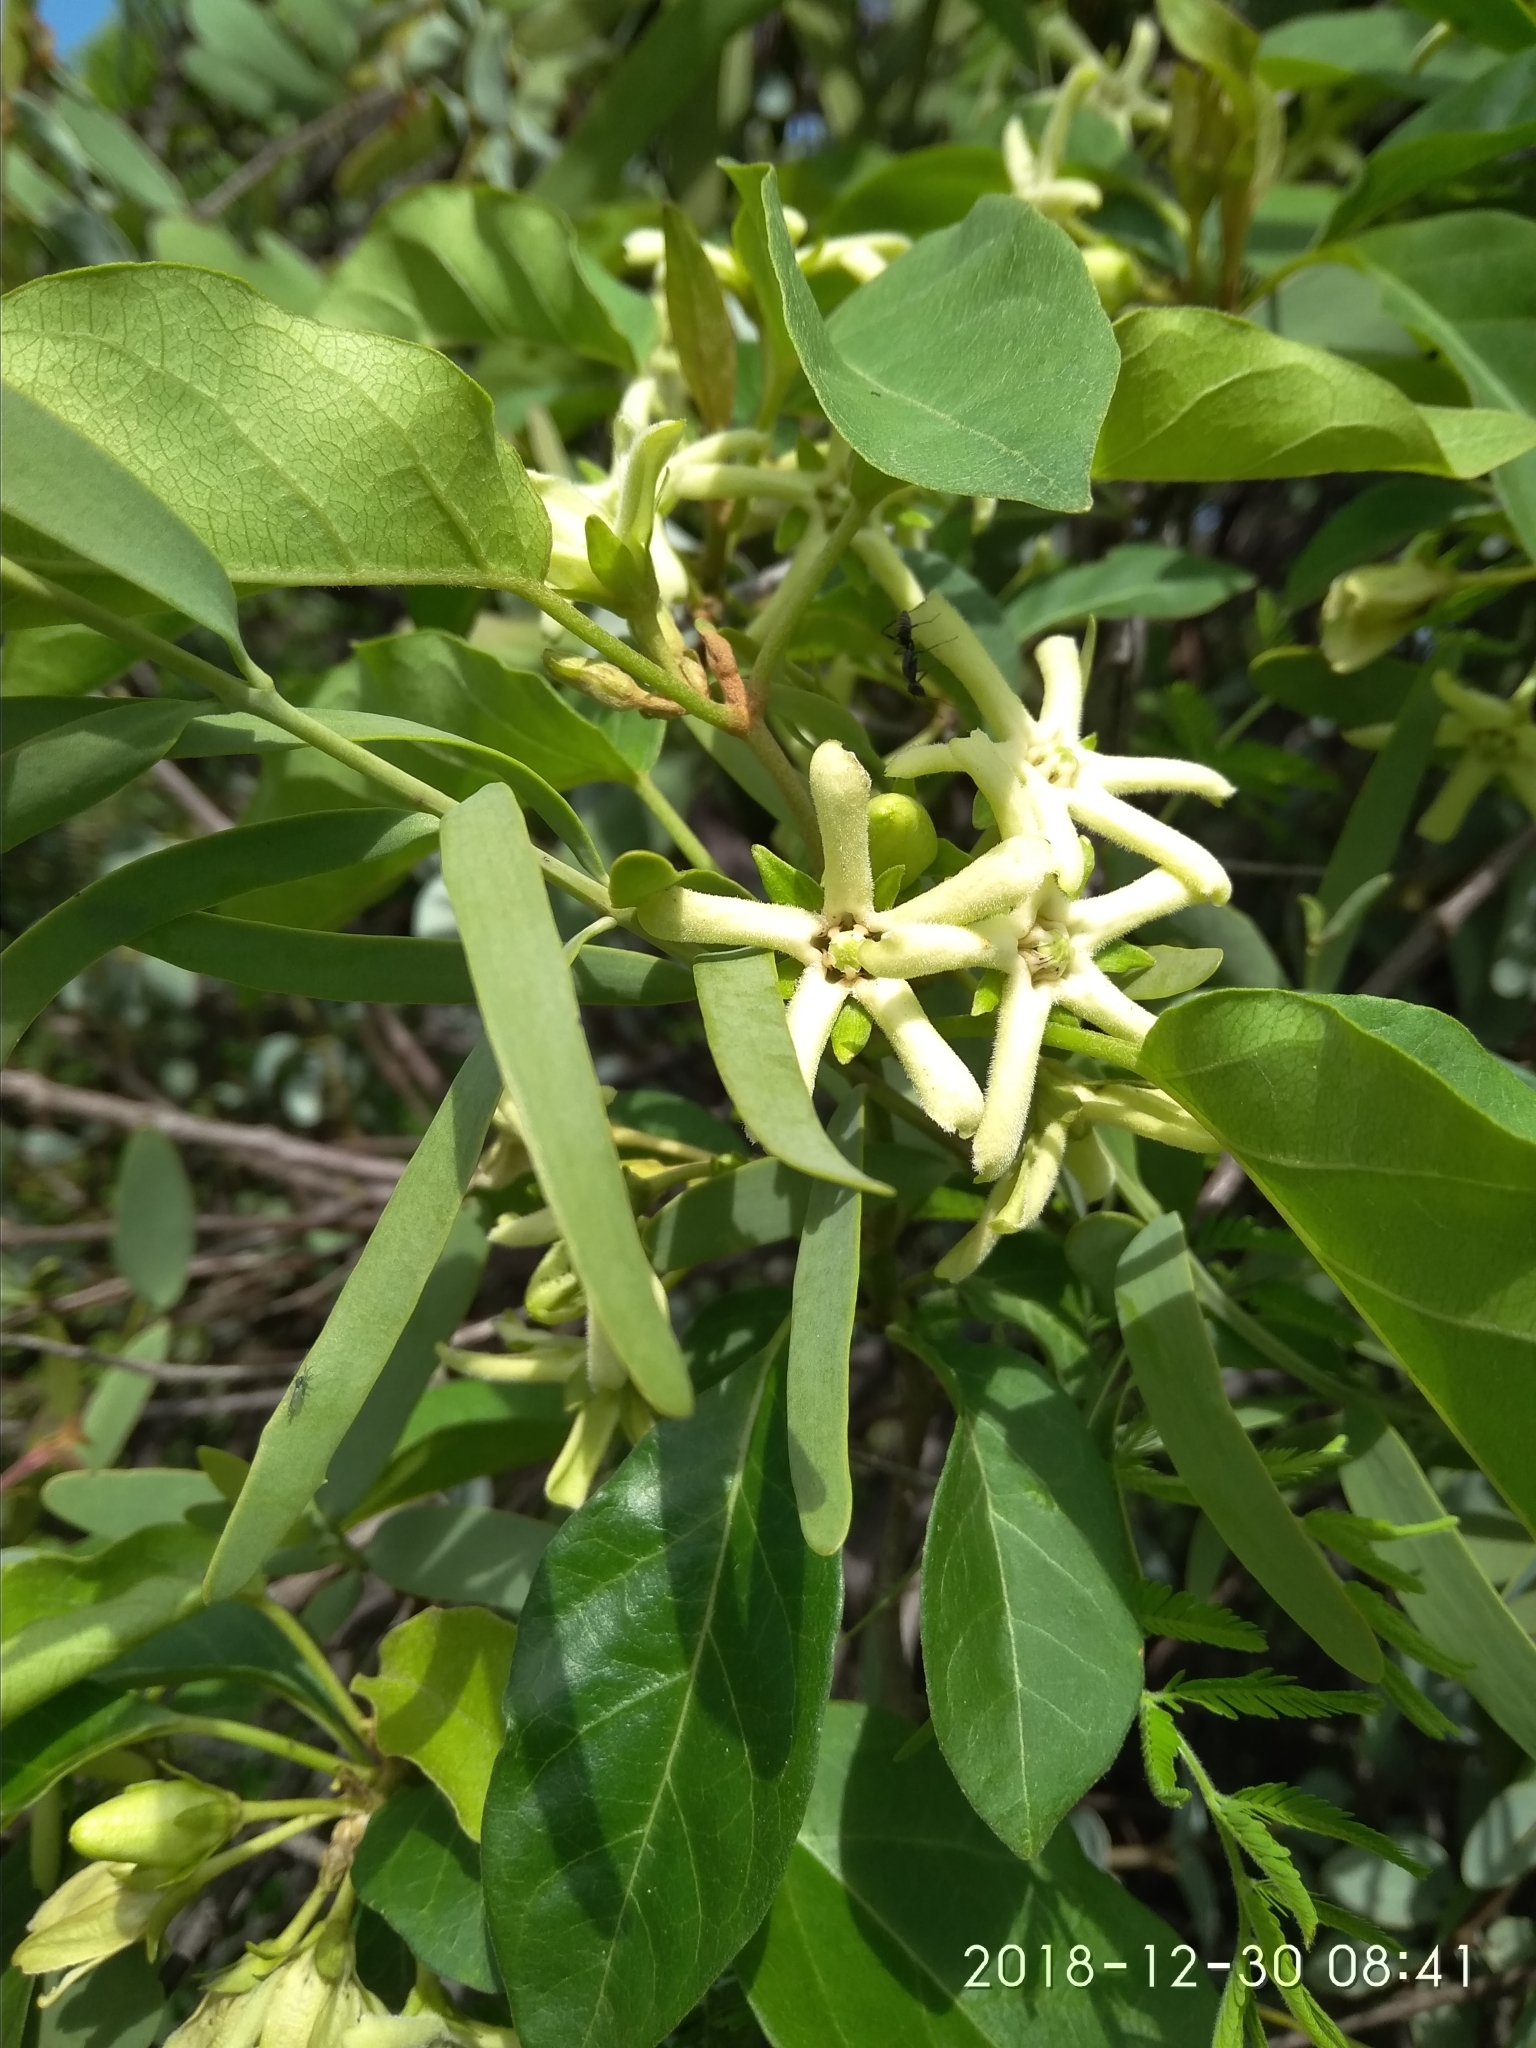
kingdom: Plantae
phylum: Tracheophyta
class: Magnoliopsida
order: Gentianales
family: Apocynaceae
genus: Stephanotis
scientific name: Stephanotis macrantha
